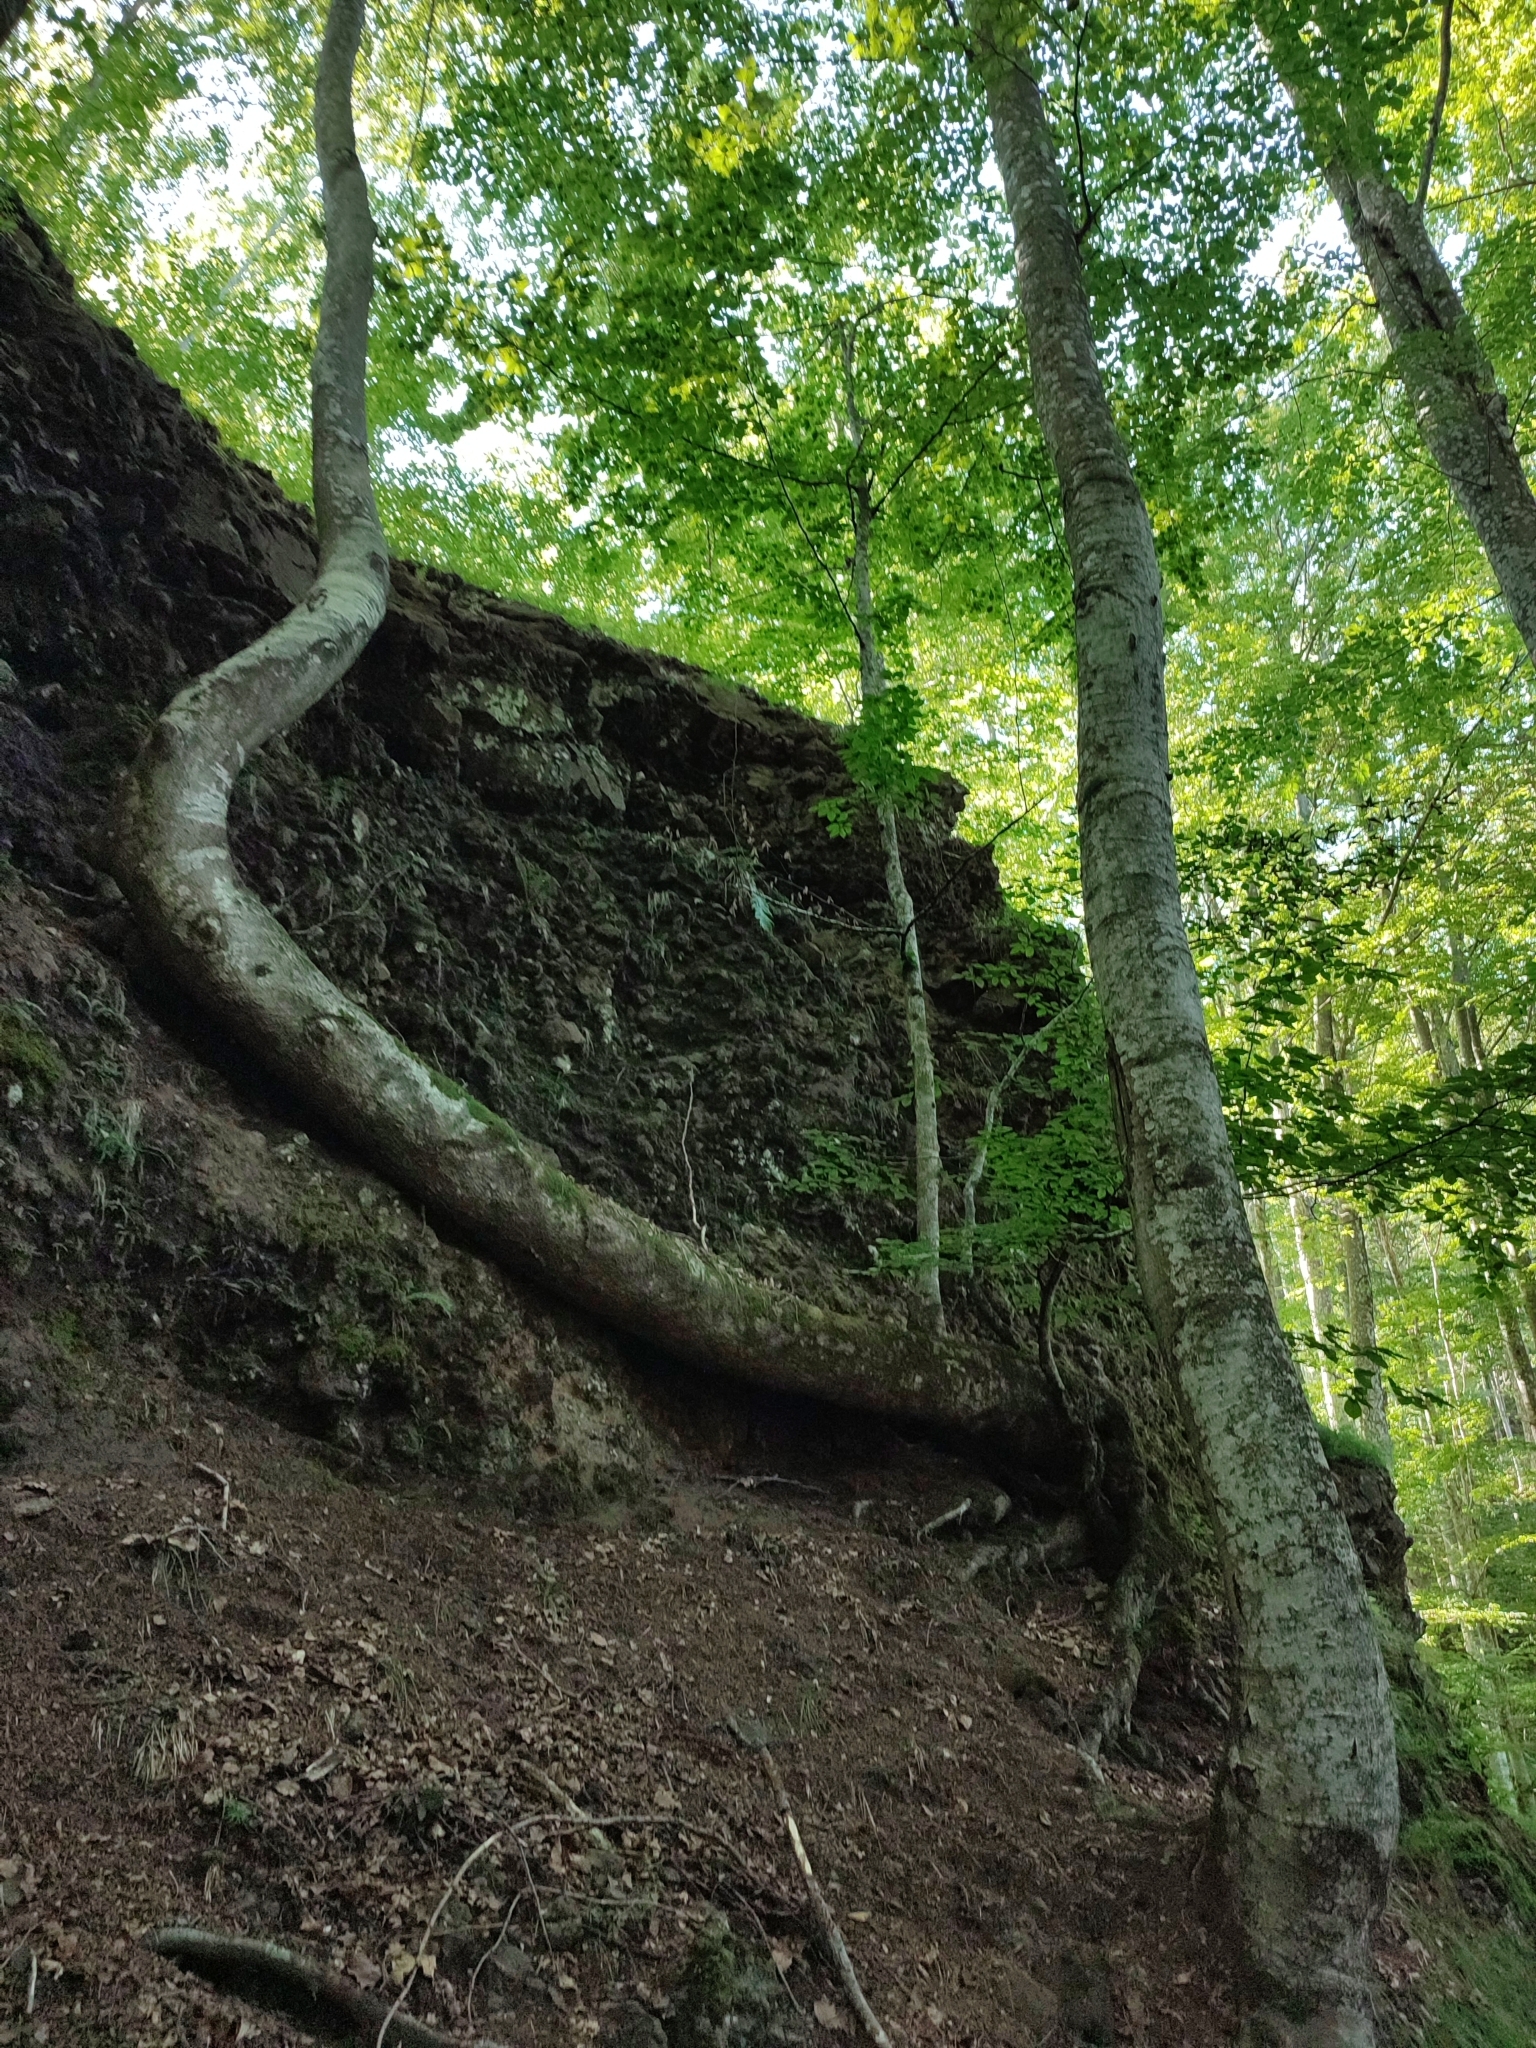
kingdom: Plantae
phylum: Tracheophyta
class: Magnoliopsida
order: Fagales
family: Fagaceae
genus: Fagus
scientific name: Fagus sylvatica
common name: Beech
